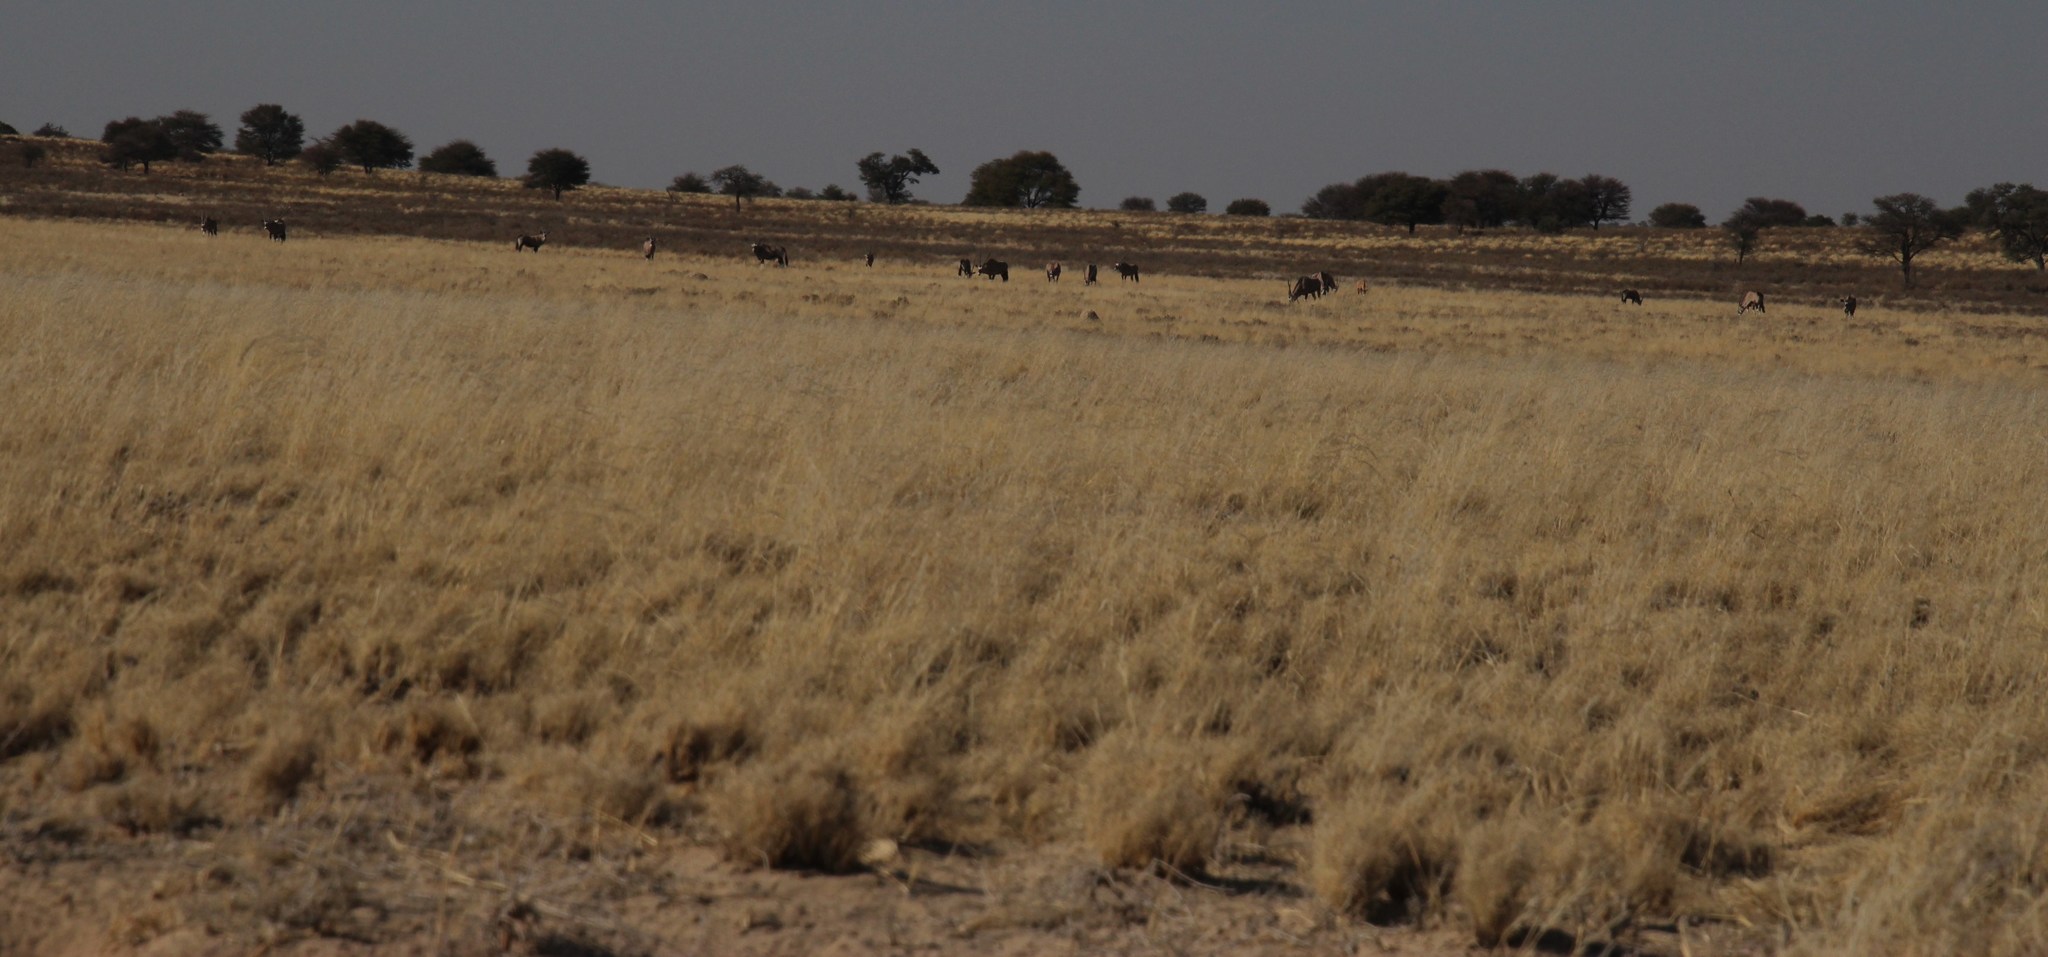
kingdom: Animalia
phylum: Chordata
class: Mammalia
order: Artiodactyla
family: Bovidae
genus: Oryx
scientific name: Oryx gazella
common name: Gemsbok
